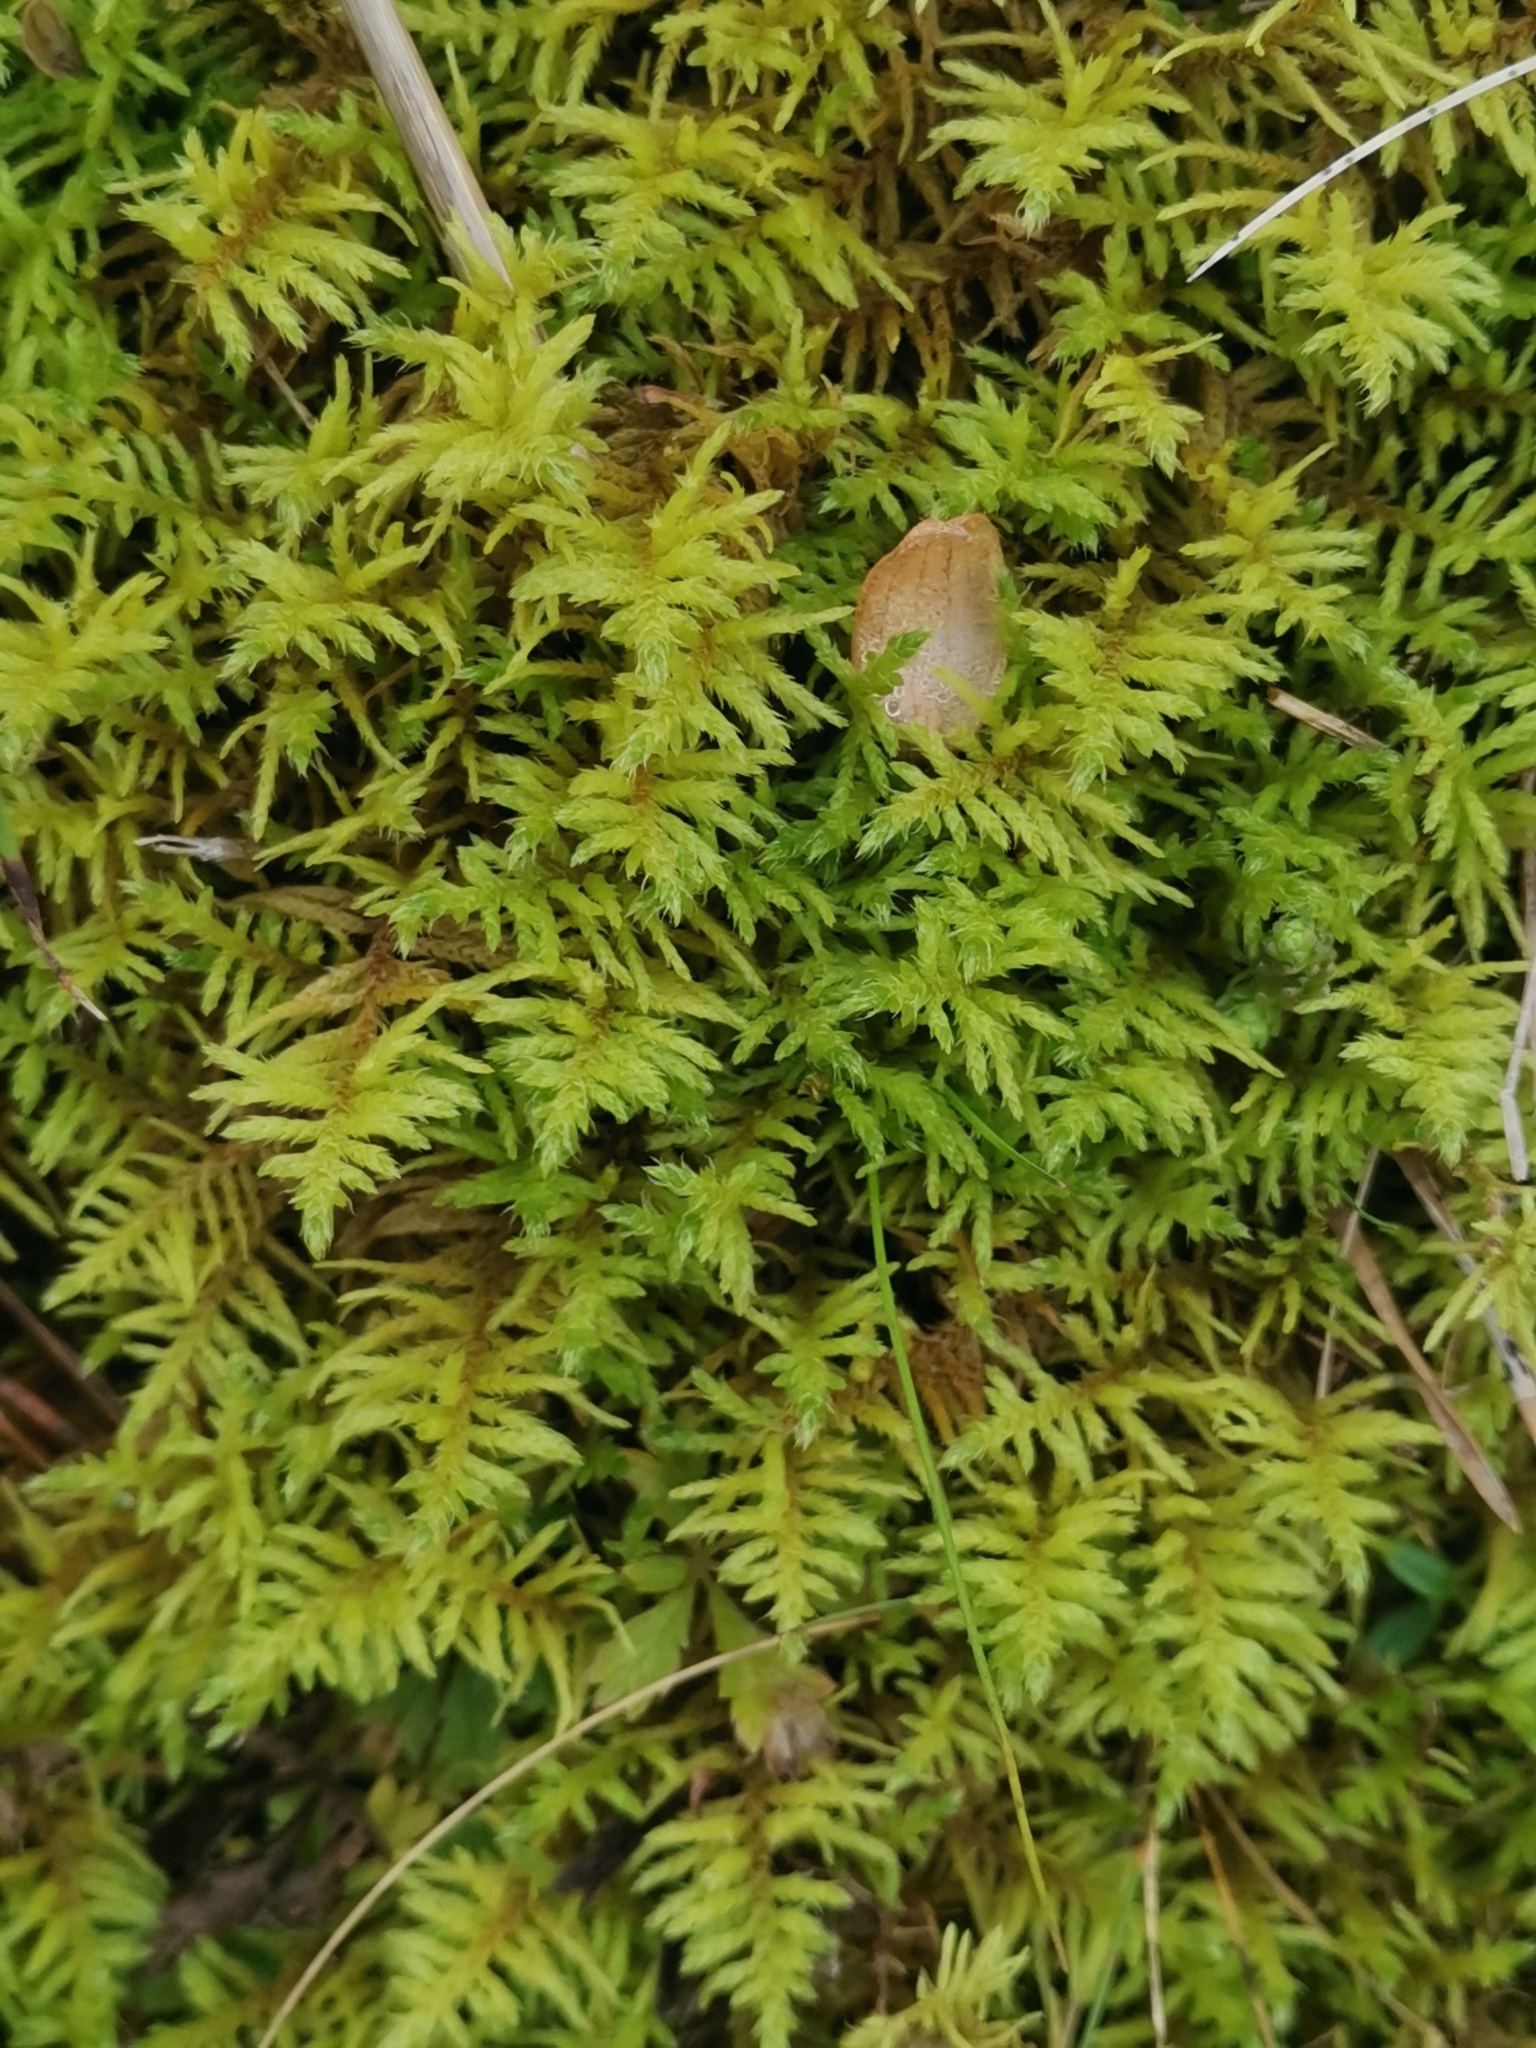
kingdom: Plantae
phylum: Bryophyta
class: Bryopsida
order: Hypnales
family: Thuidiaceae
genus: Abietinella
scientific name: Abietinella abietina
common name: Wiry fern moss
